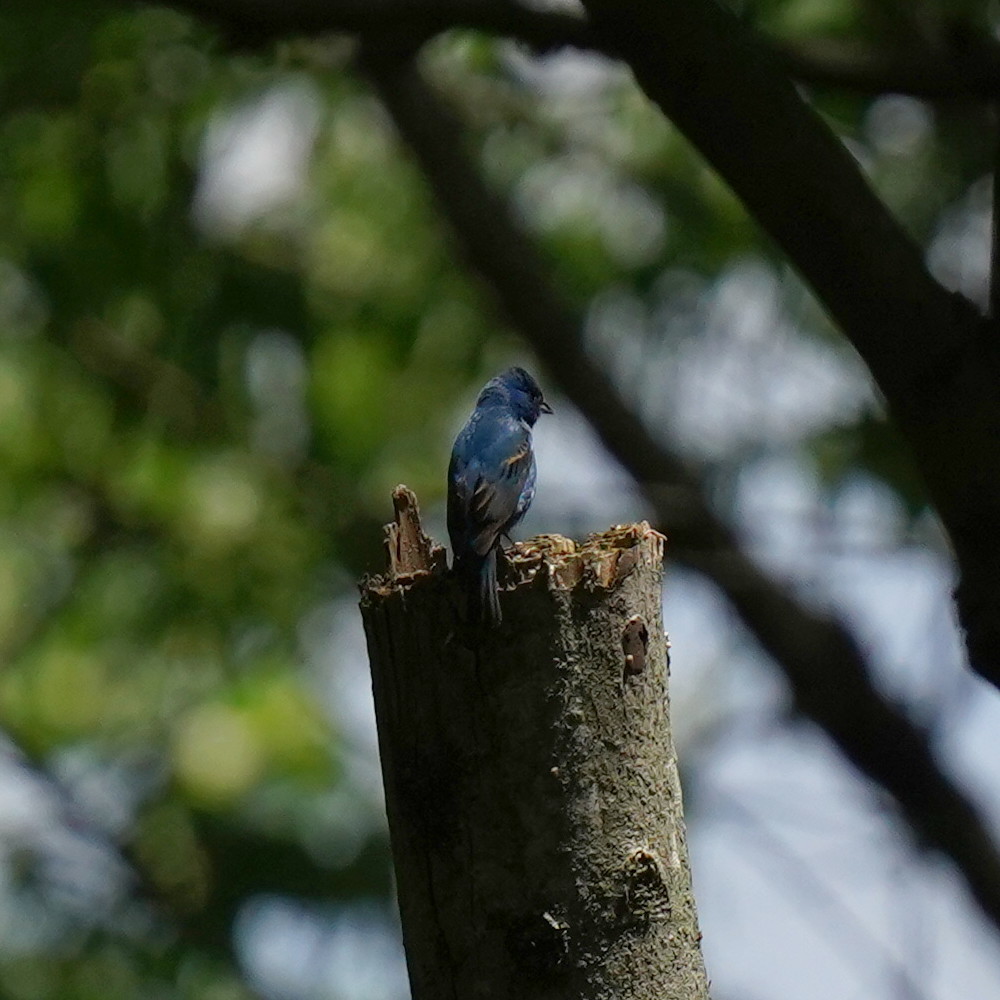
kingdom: Animalia
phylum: Chordata
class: Aves
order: Passeriformes
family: Cardinalidae
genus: Passerina
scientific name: Passerina cyanea
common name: Indigo bunting
